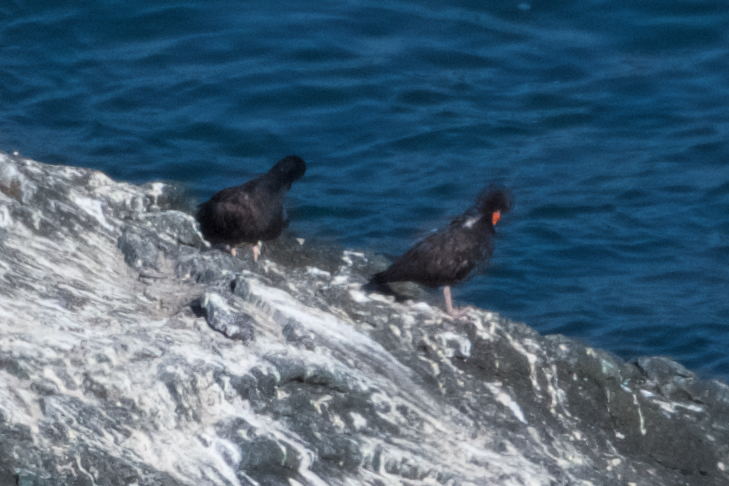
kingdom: Animalia
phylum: Chordata
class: Aves
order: Charadriiformes
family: Haematopodidae
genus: Haematopus
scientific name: Haematopus bachmani
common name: Black oystercatcher
